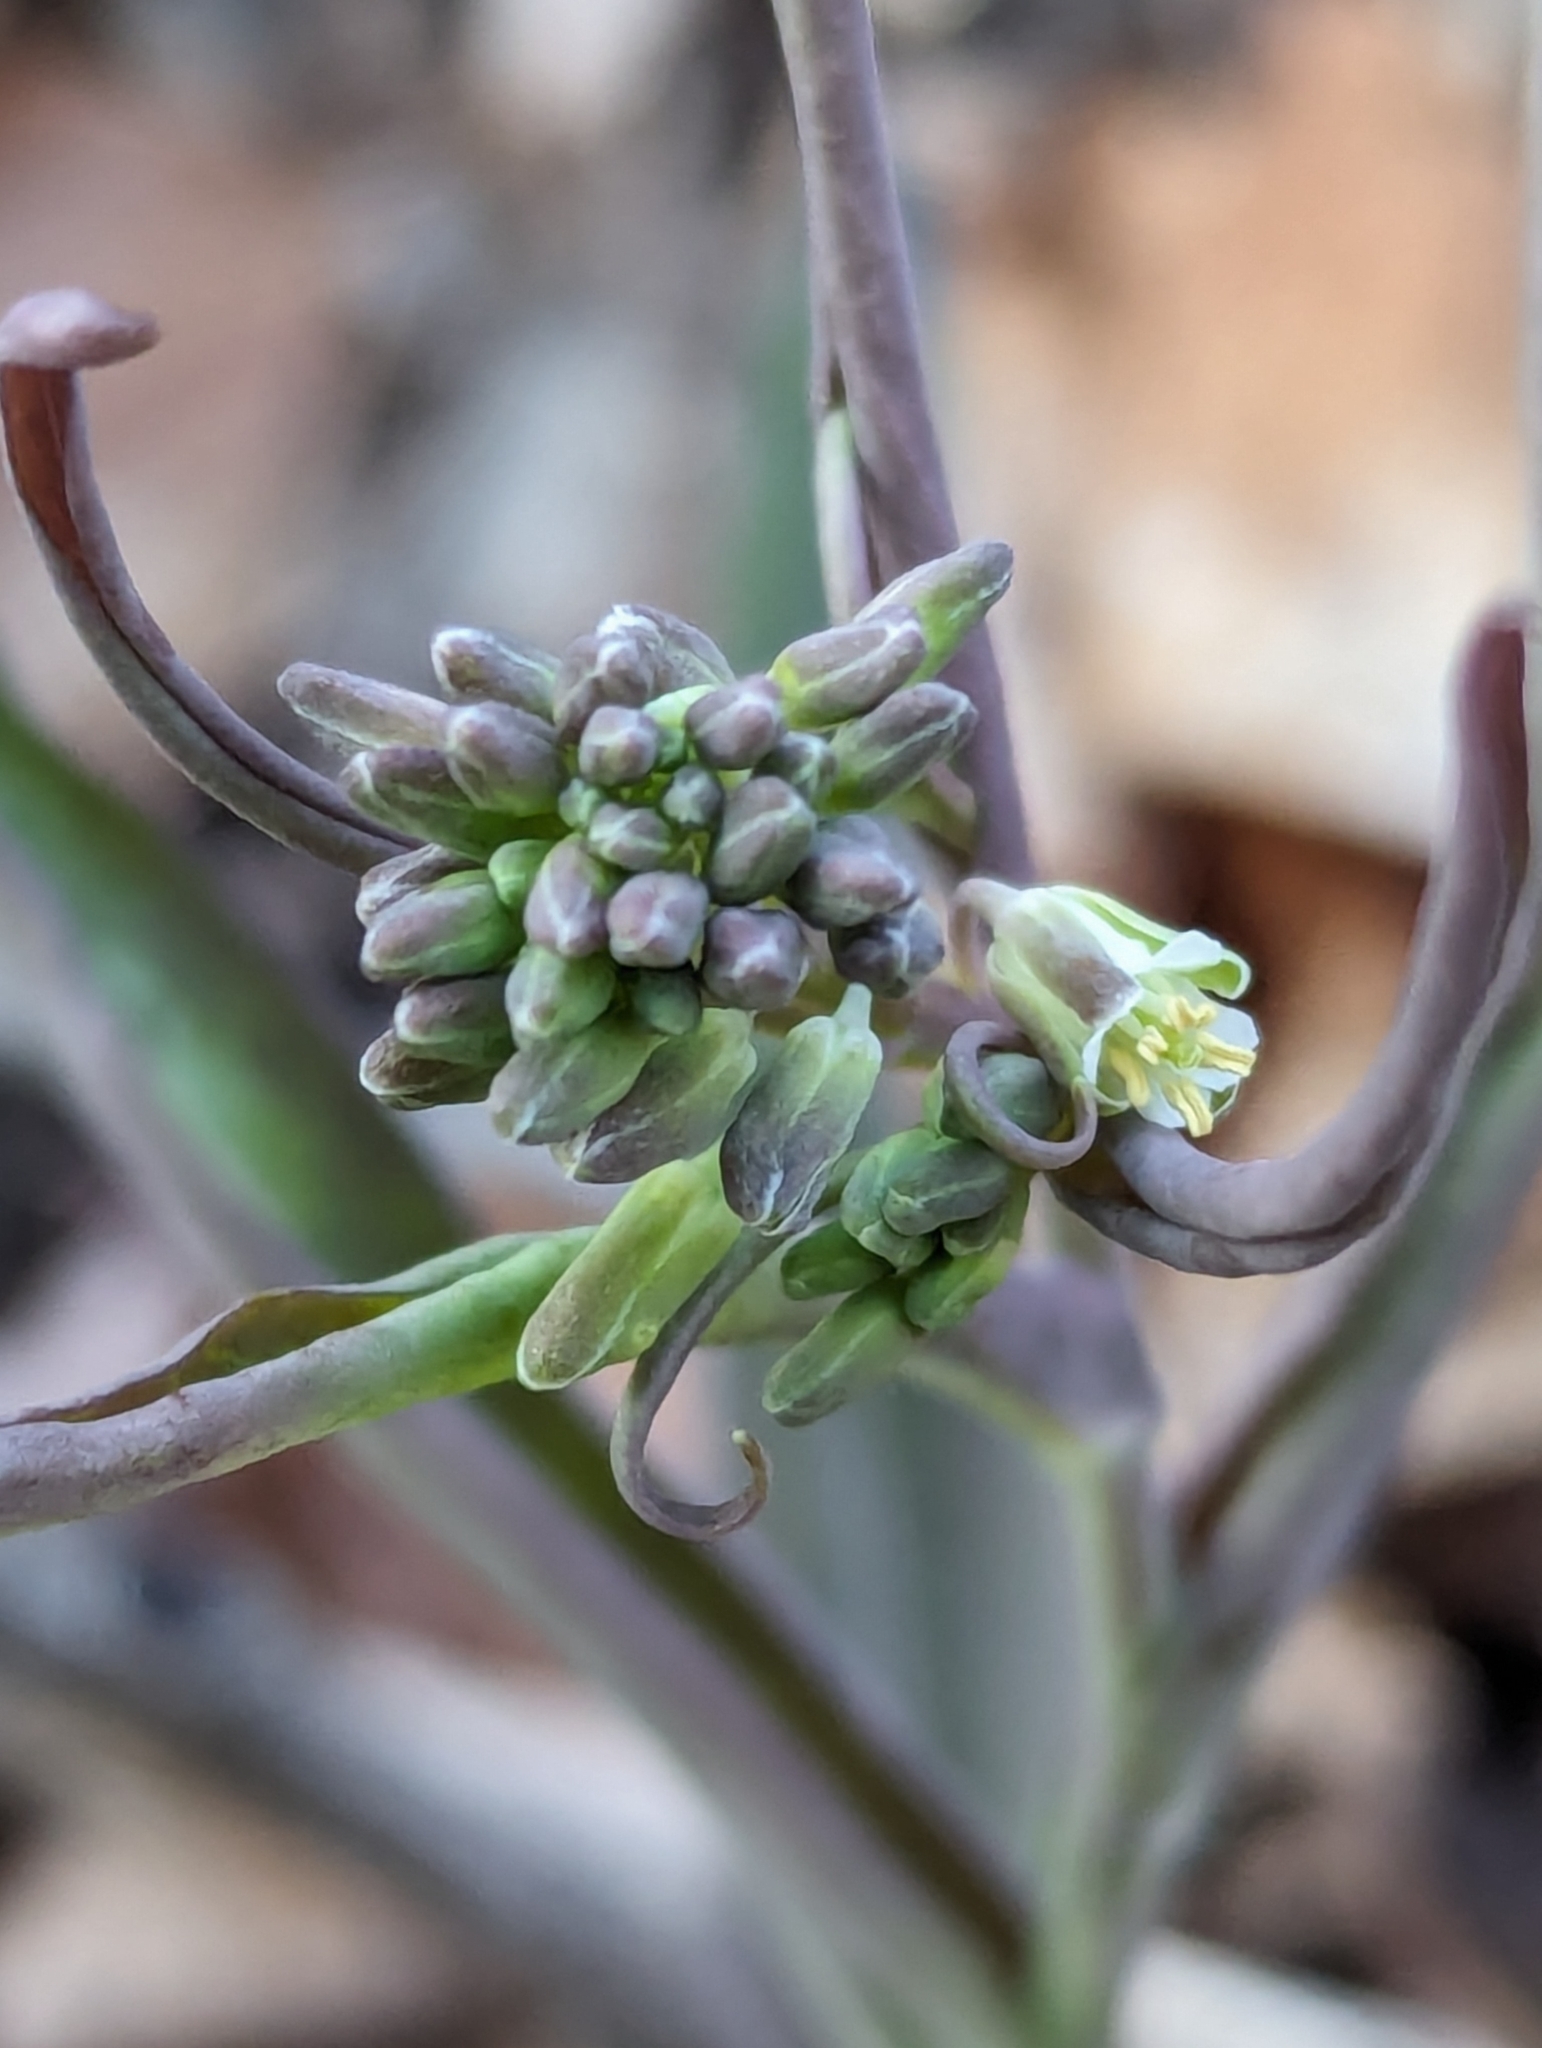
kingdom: Plantae
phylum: Tracheophyta
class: Magnoliopsida
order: Brassicales
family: Brassicaceae
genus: Borodinia
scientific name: Borodinia laevigata
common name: Smooth rockcress
